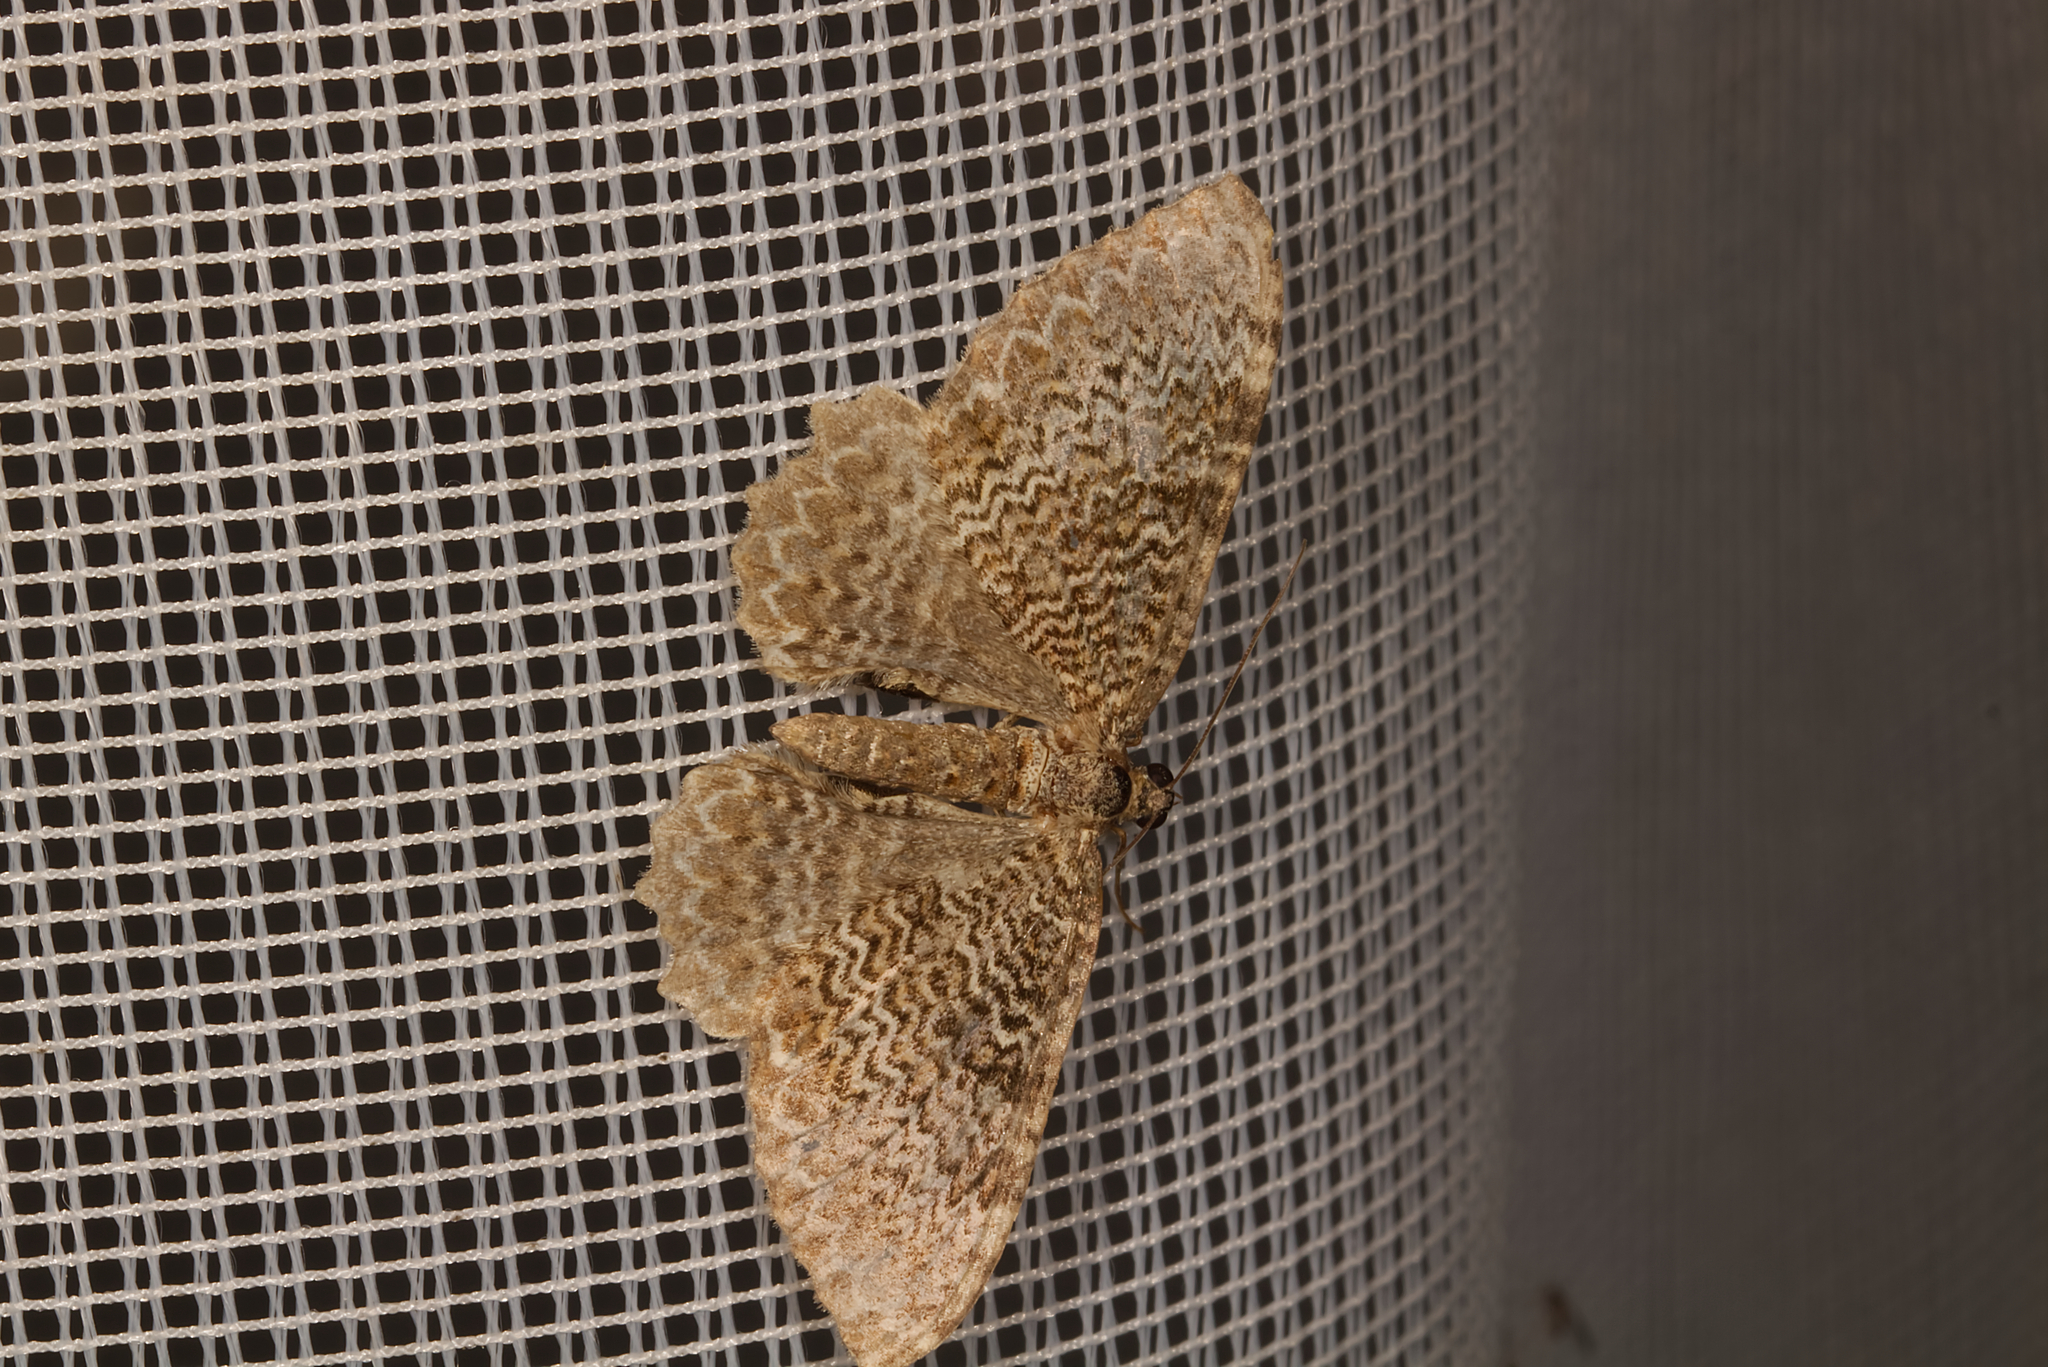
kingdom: Animalia
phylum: Arthropoda
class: Insecta
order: Lepidoptera
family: Geometridae
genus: Rheumaptera
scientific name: Rheumaptera undulata
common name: Scallop shell
